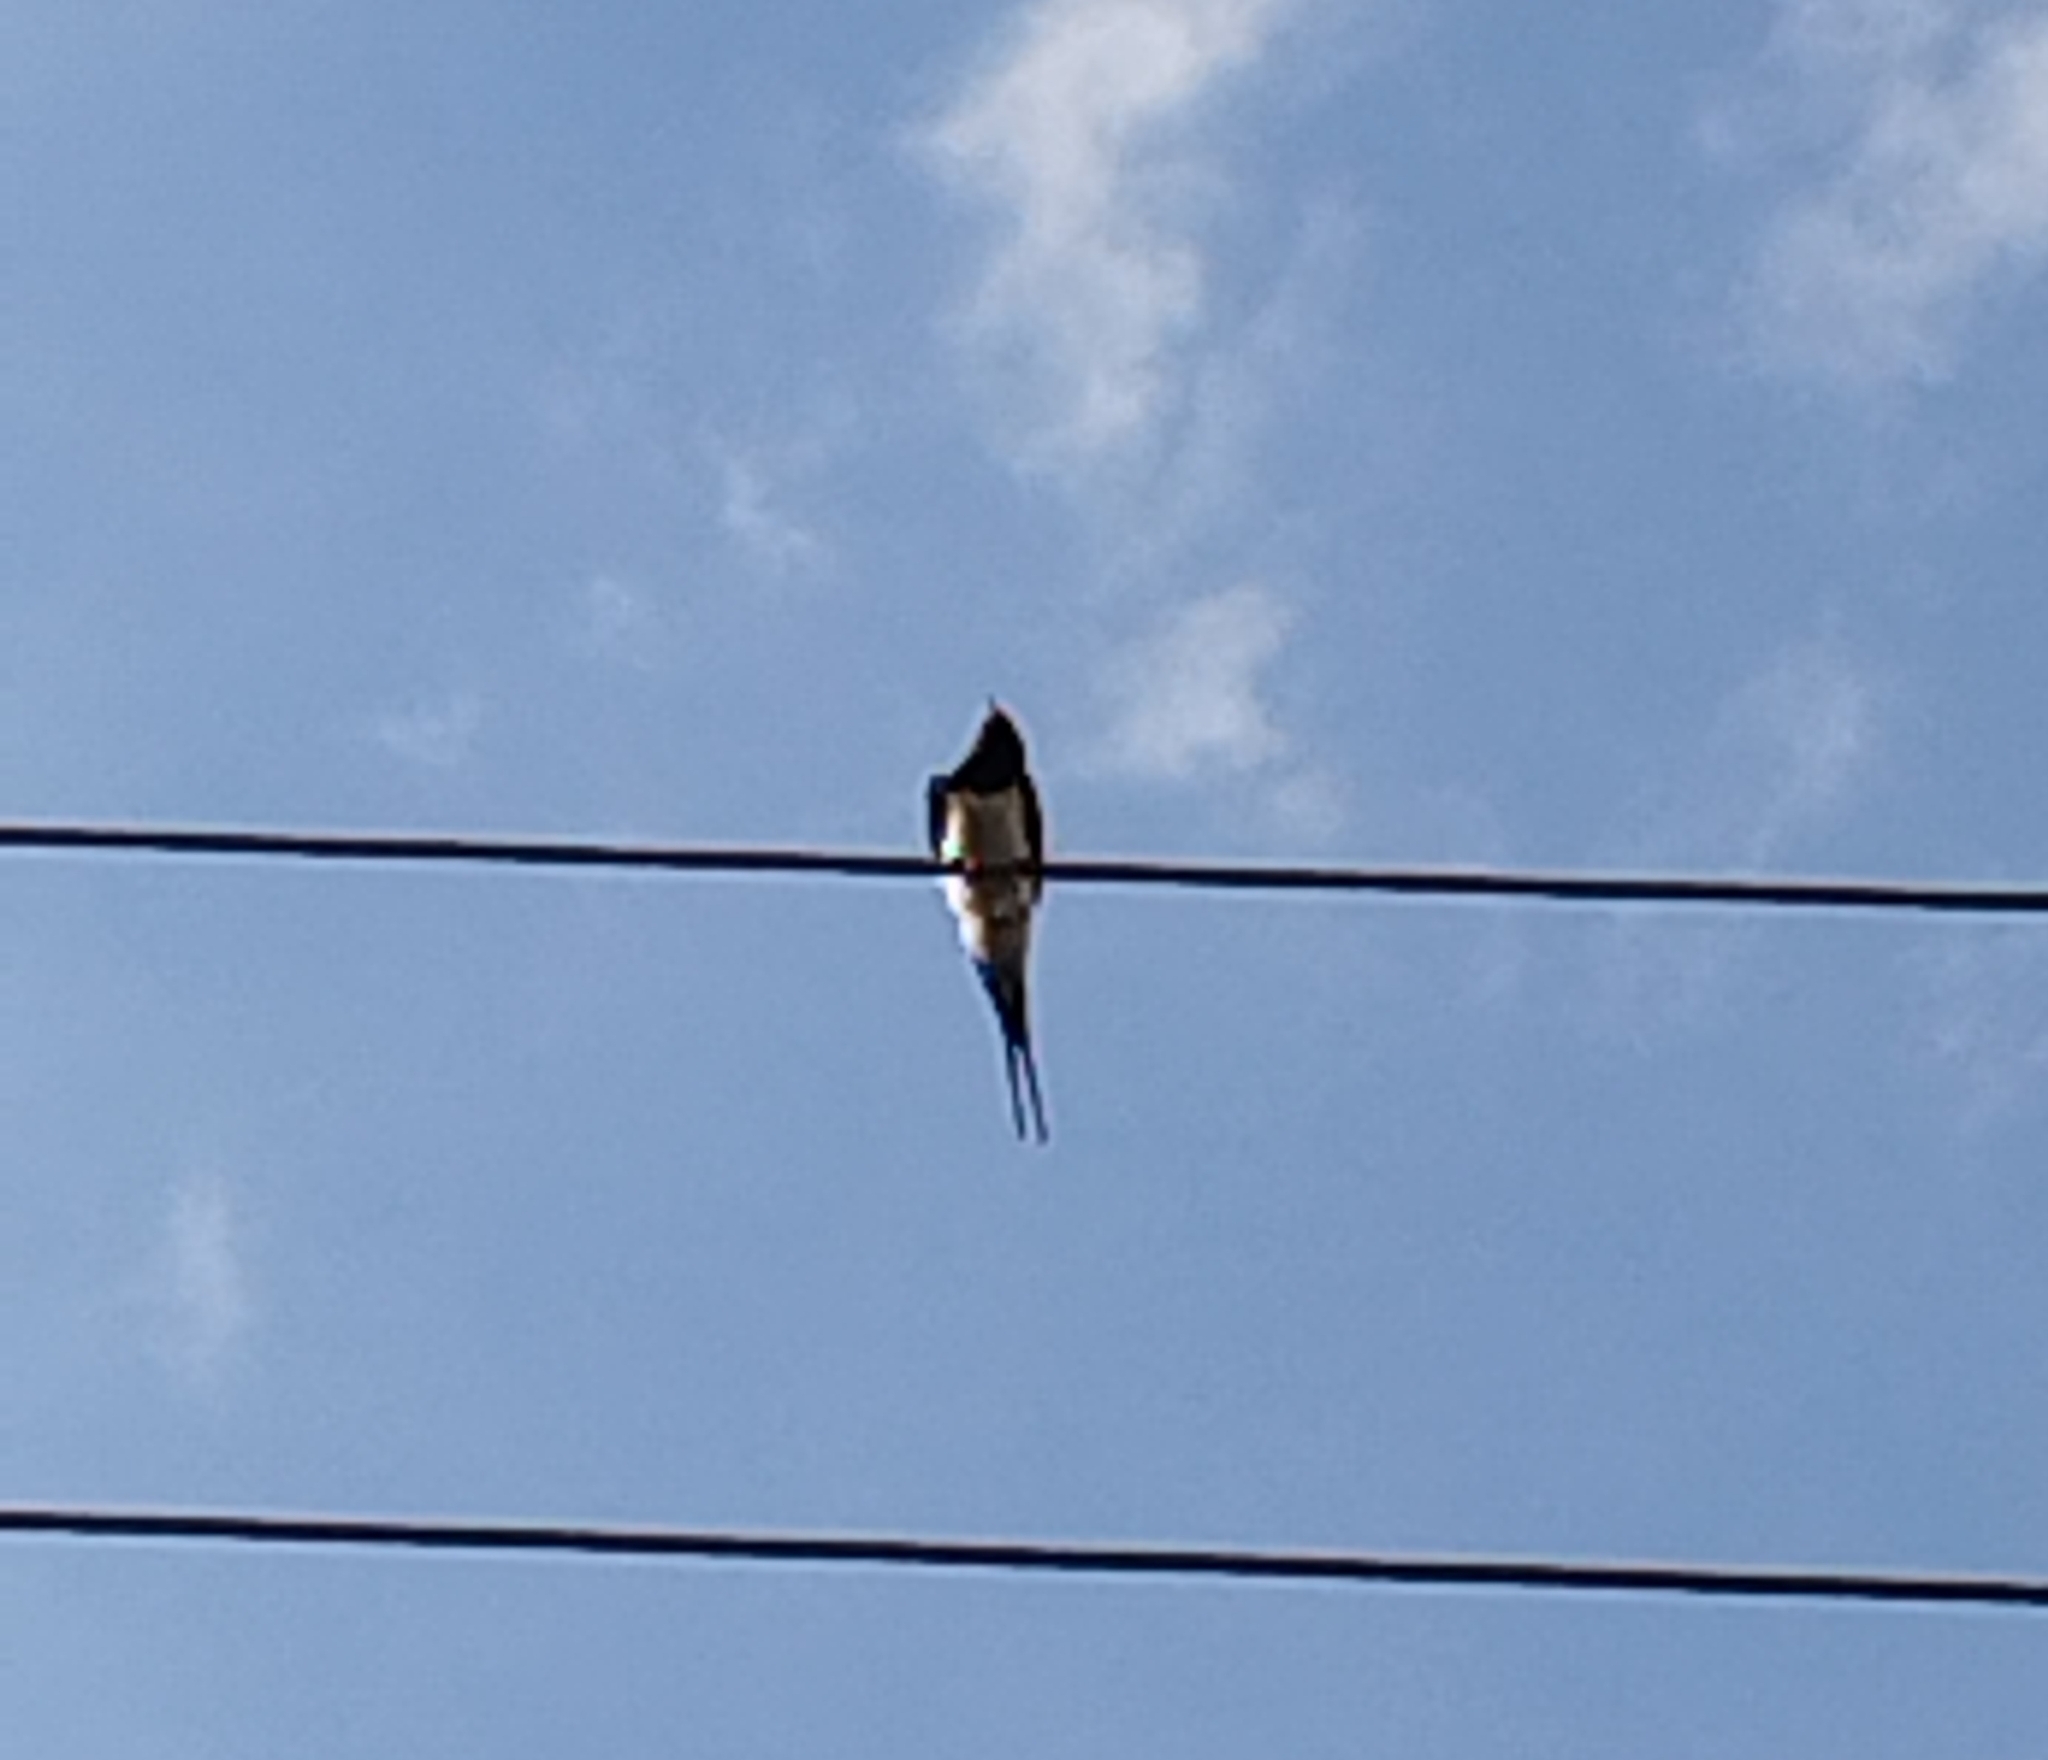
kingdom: Animalia
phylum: Chordata
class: Aves
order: Passeriformes
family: Hirundinidae
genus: Hirundo
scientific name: Hirundo rustica
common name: Barn swallow
